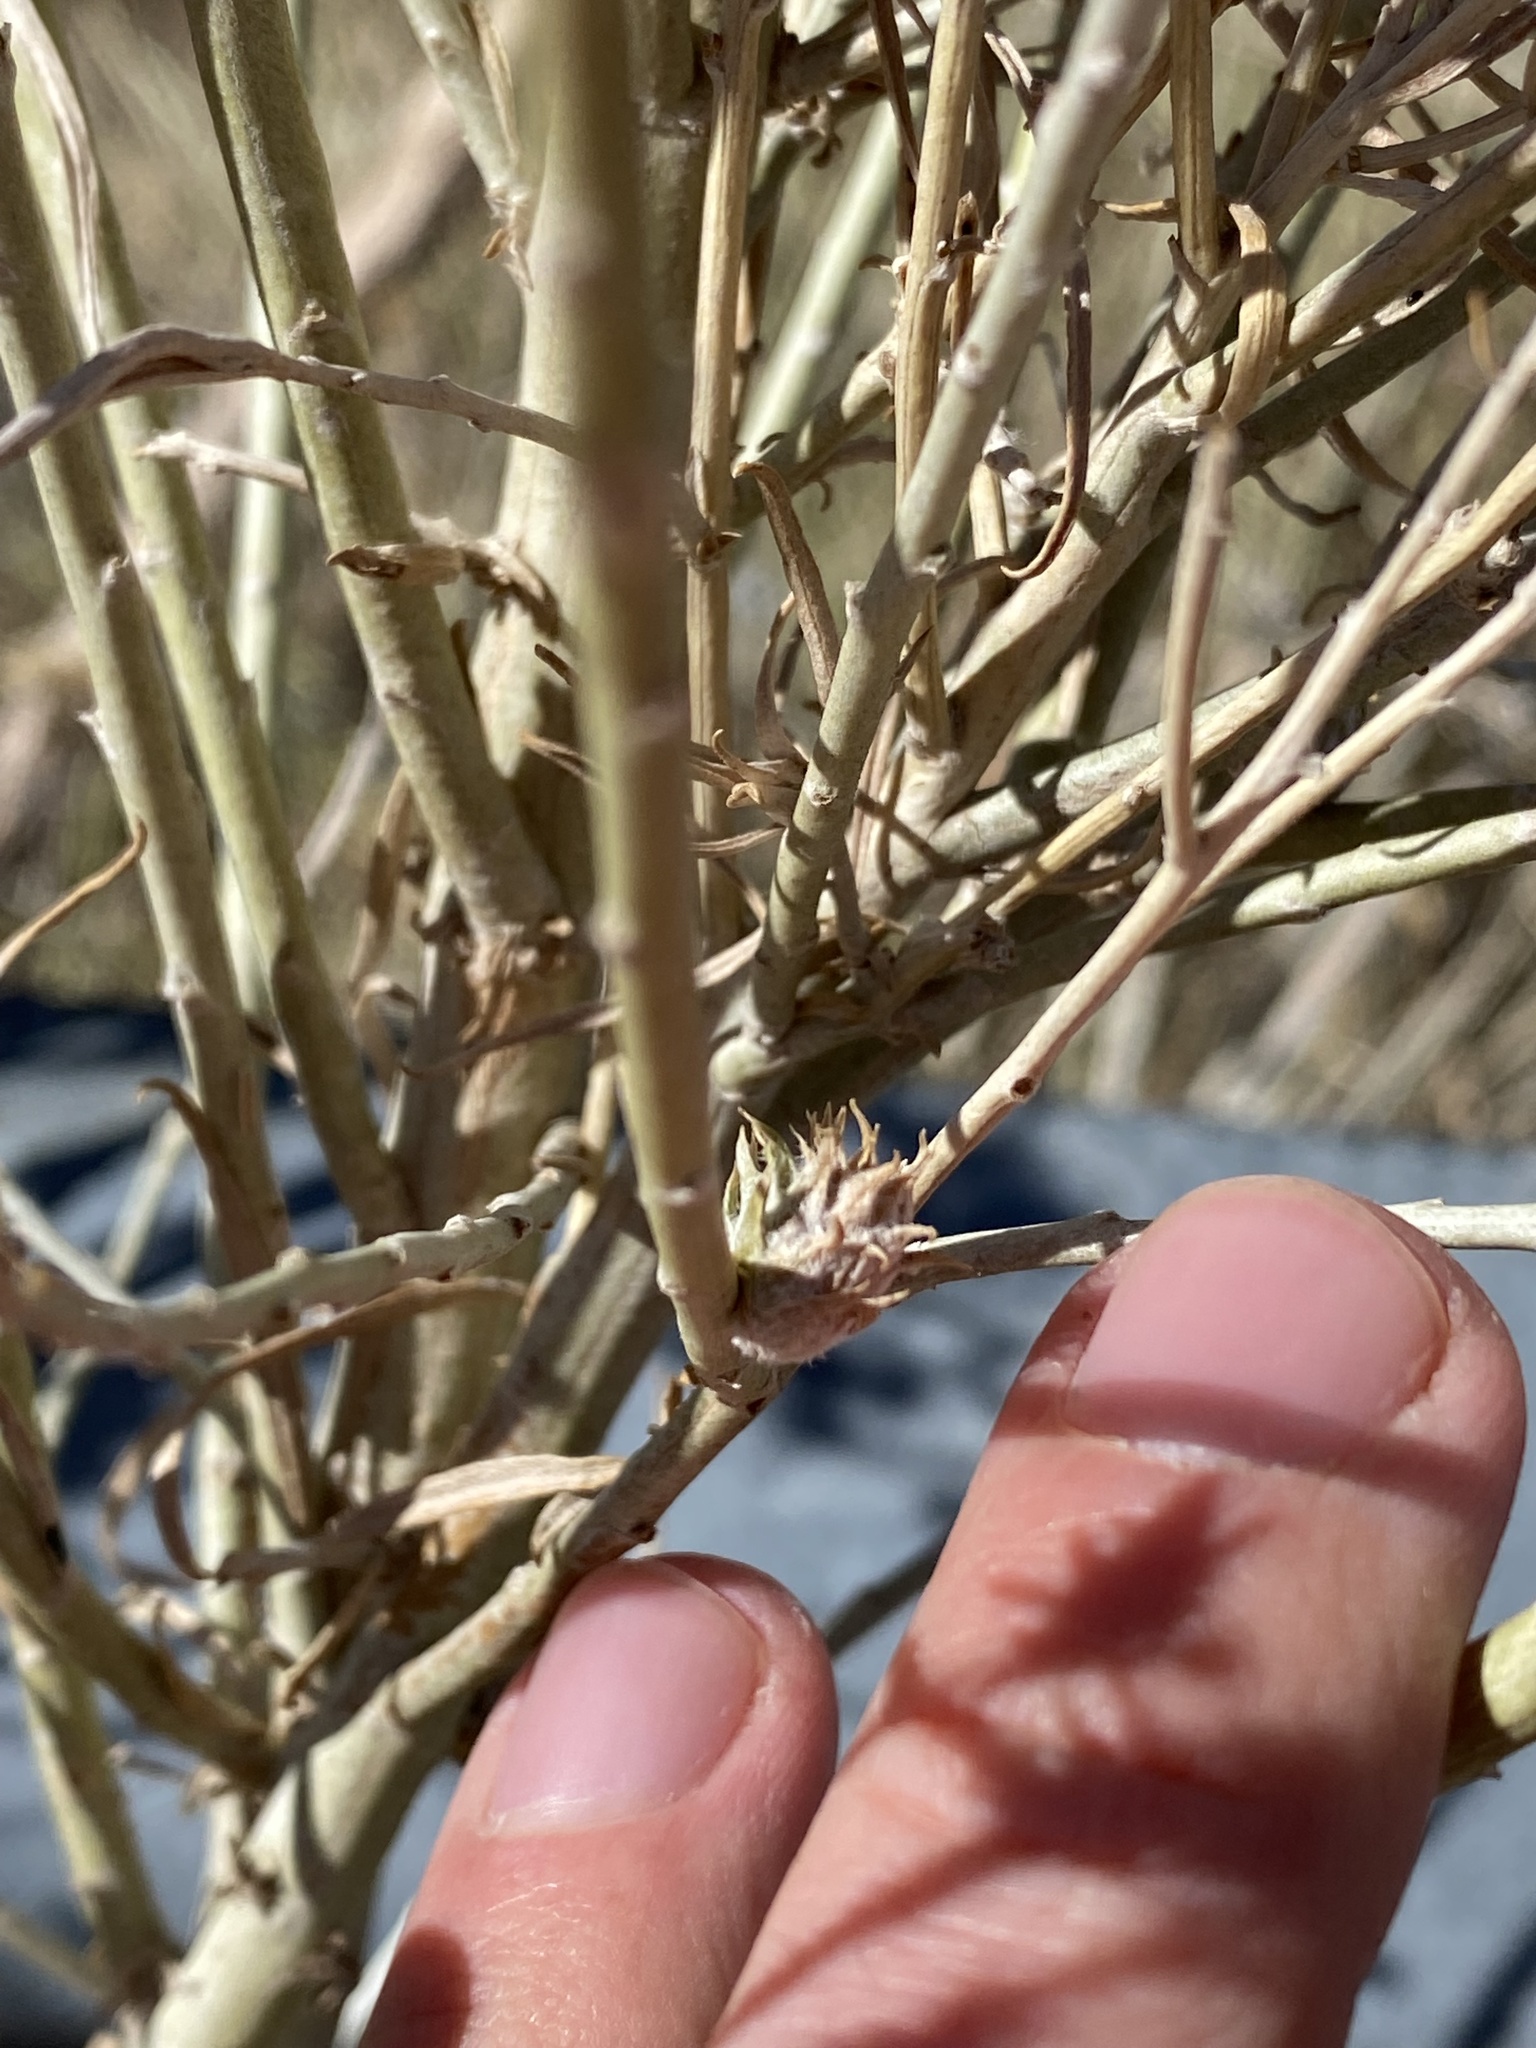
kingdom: Animalia
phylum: Arthropoda
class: Insecta
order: Diptera
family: Cecidomyiidae
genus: Rhopalomyia
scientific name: Rhopalomyia utahensis
